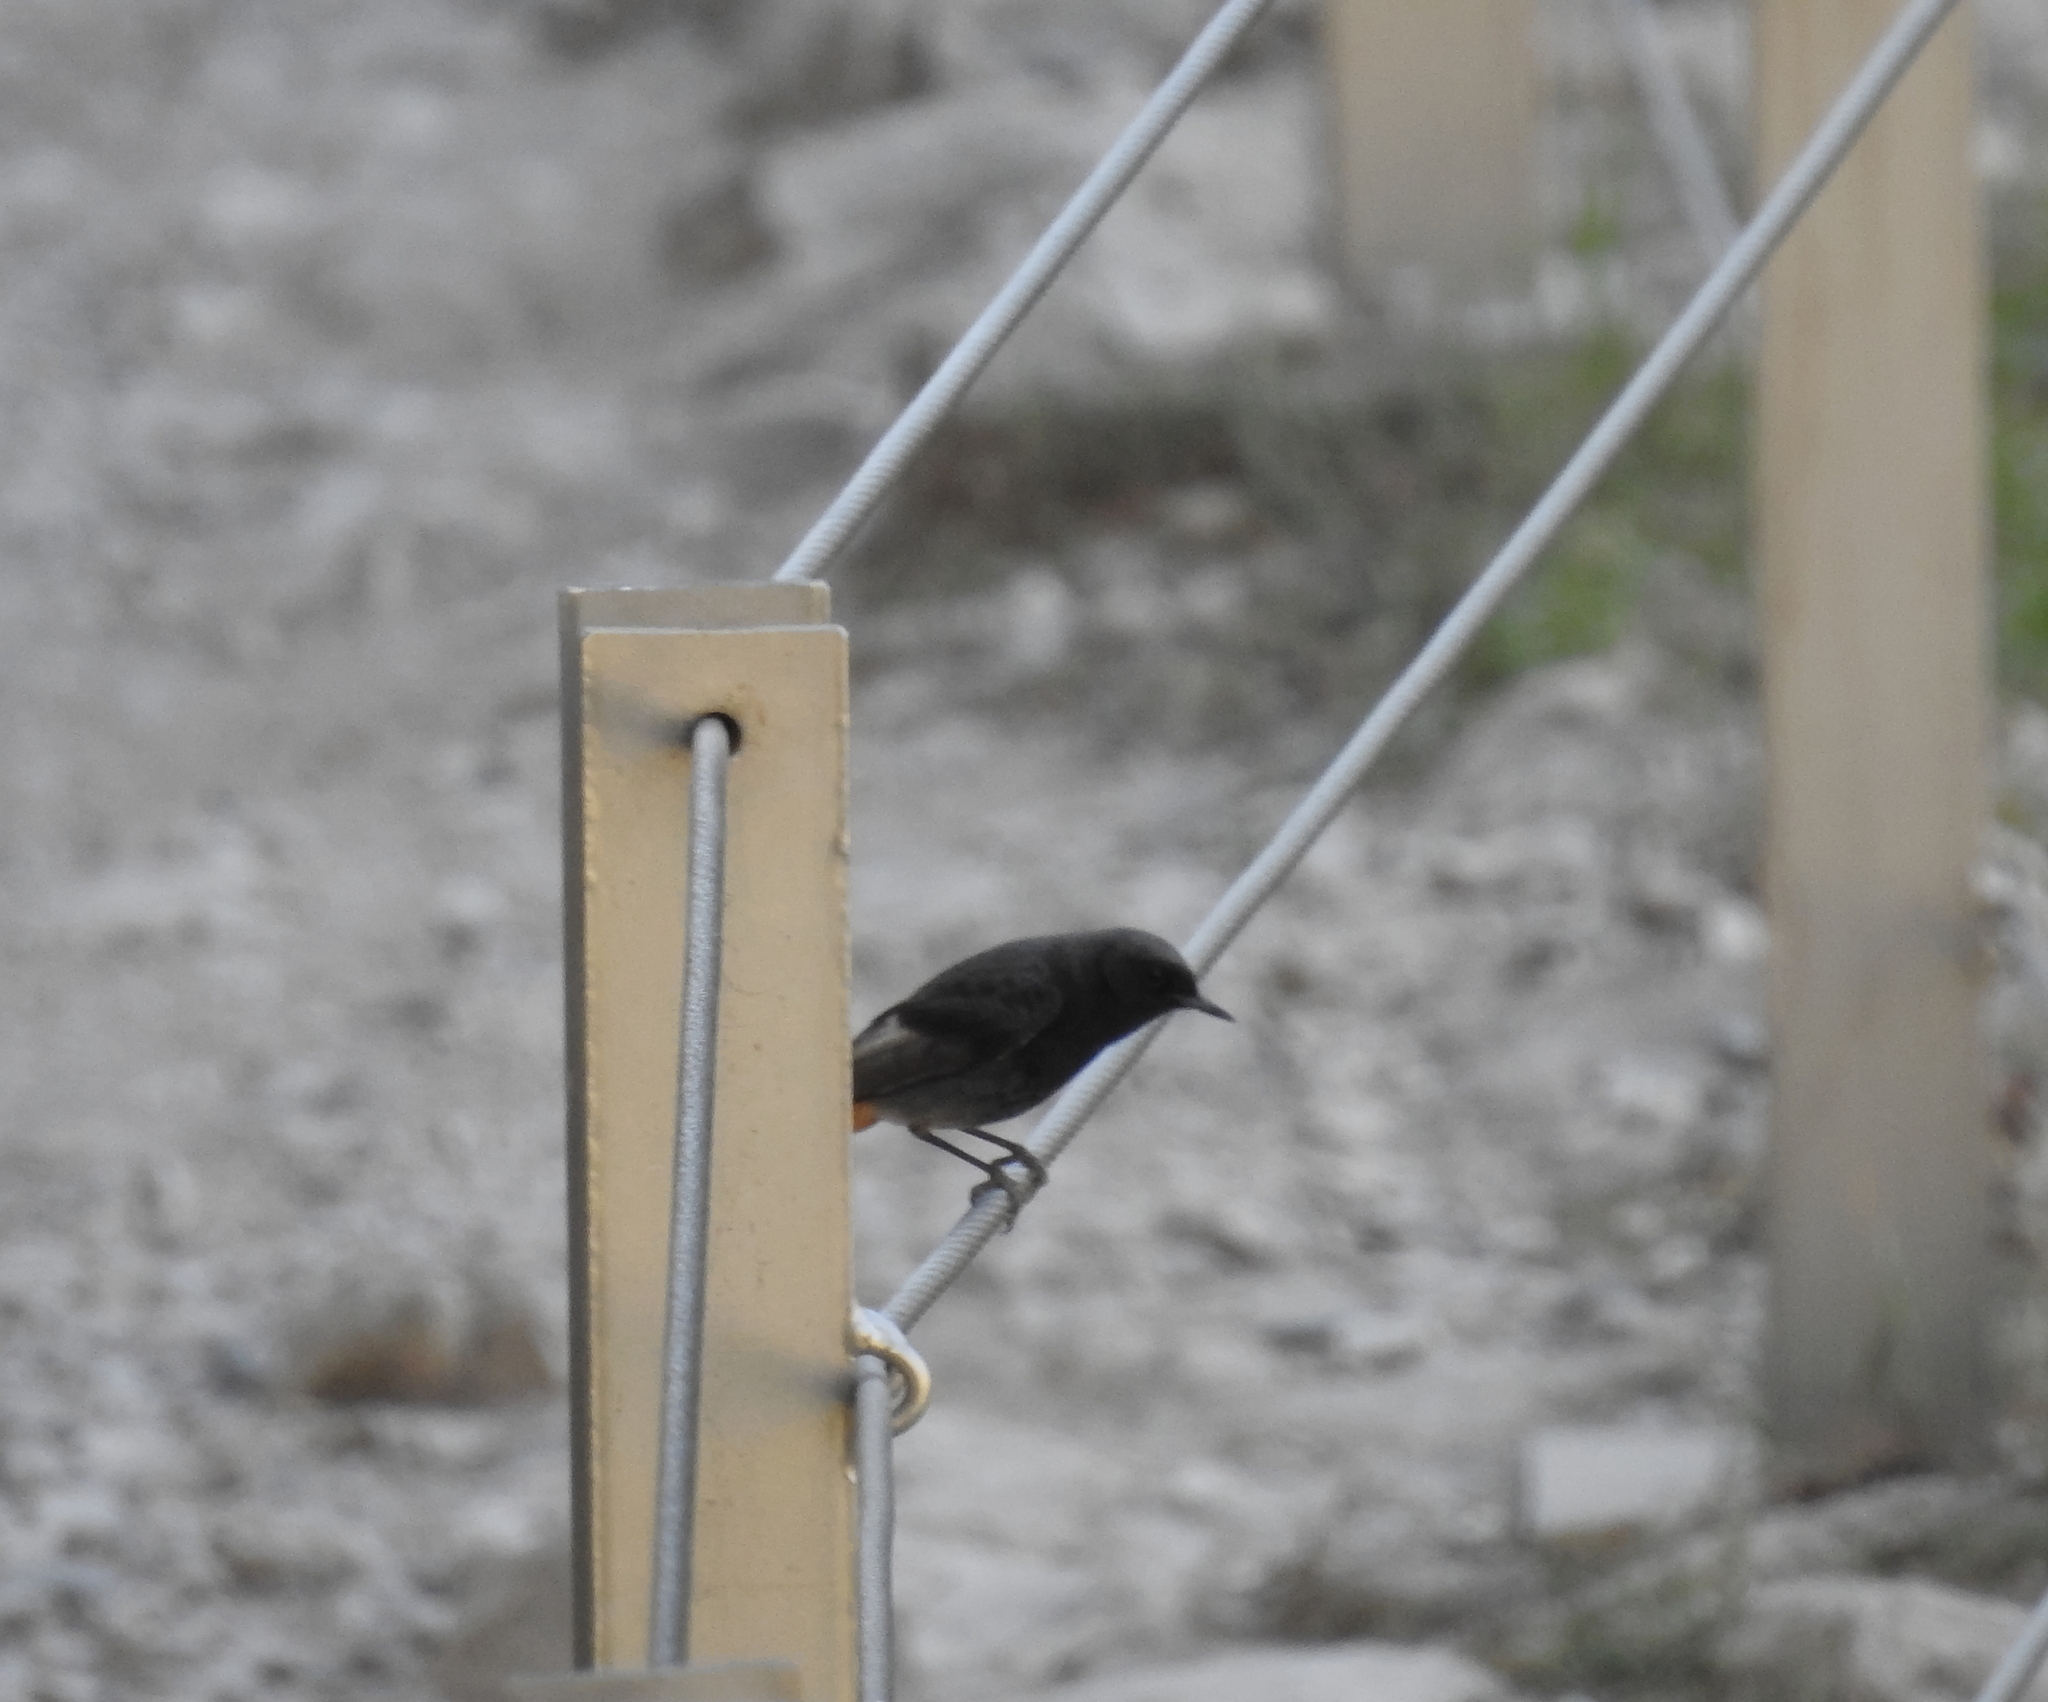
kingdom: Animalia
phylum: Chordata
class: Aves
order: Passeriformes
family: Muscicapidae
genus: Phoenicurus
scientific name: Phoenicurus ochruros
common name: Black redstart
